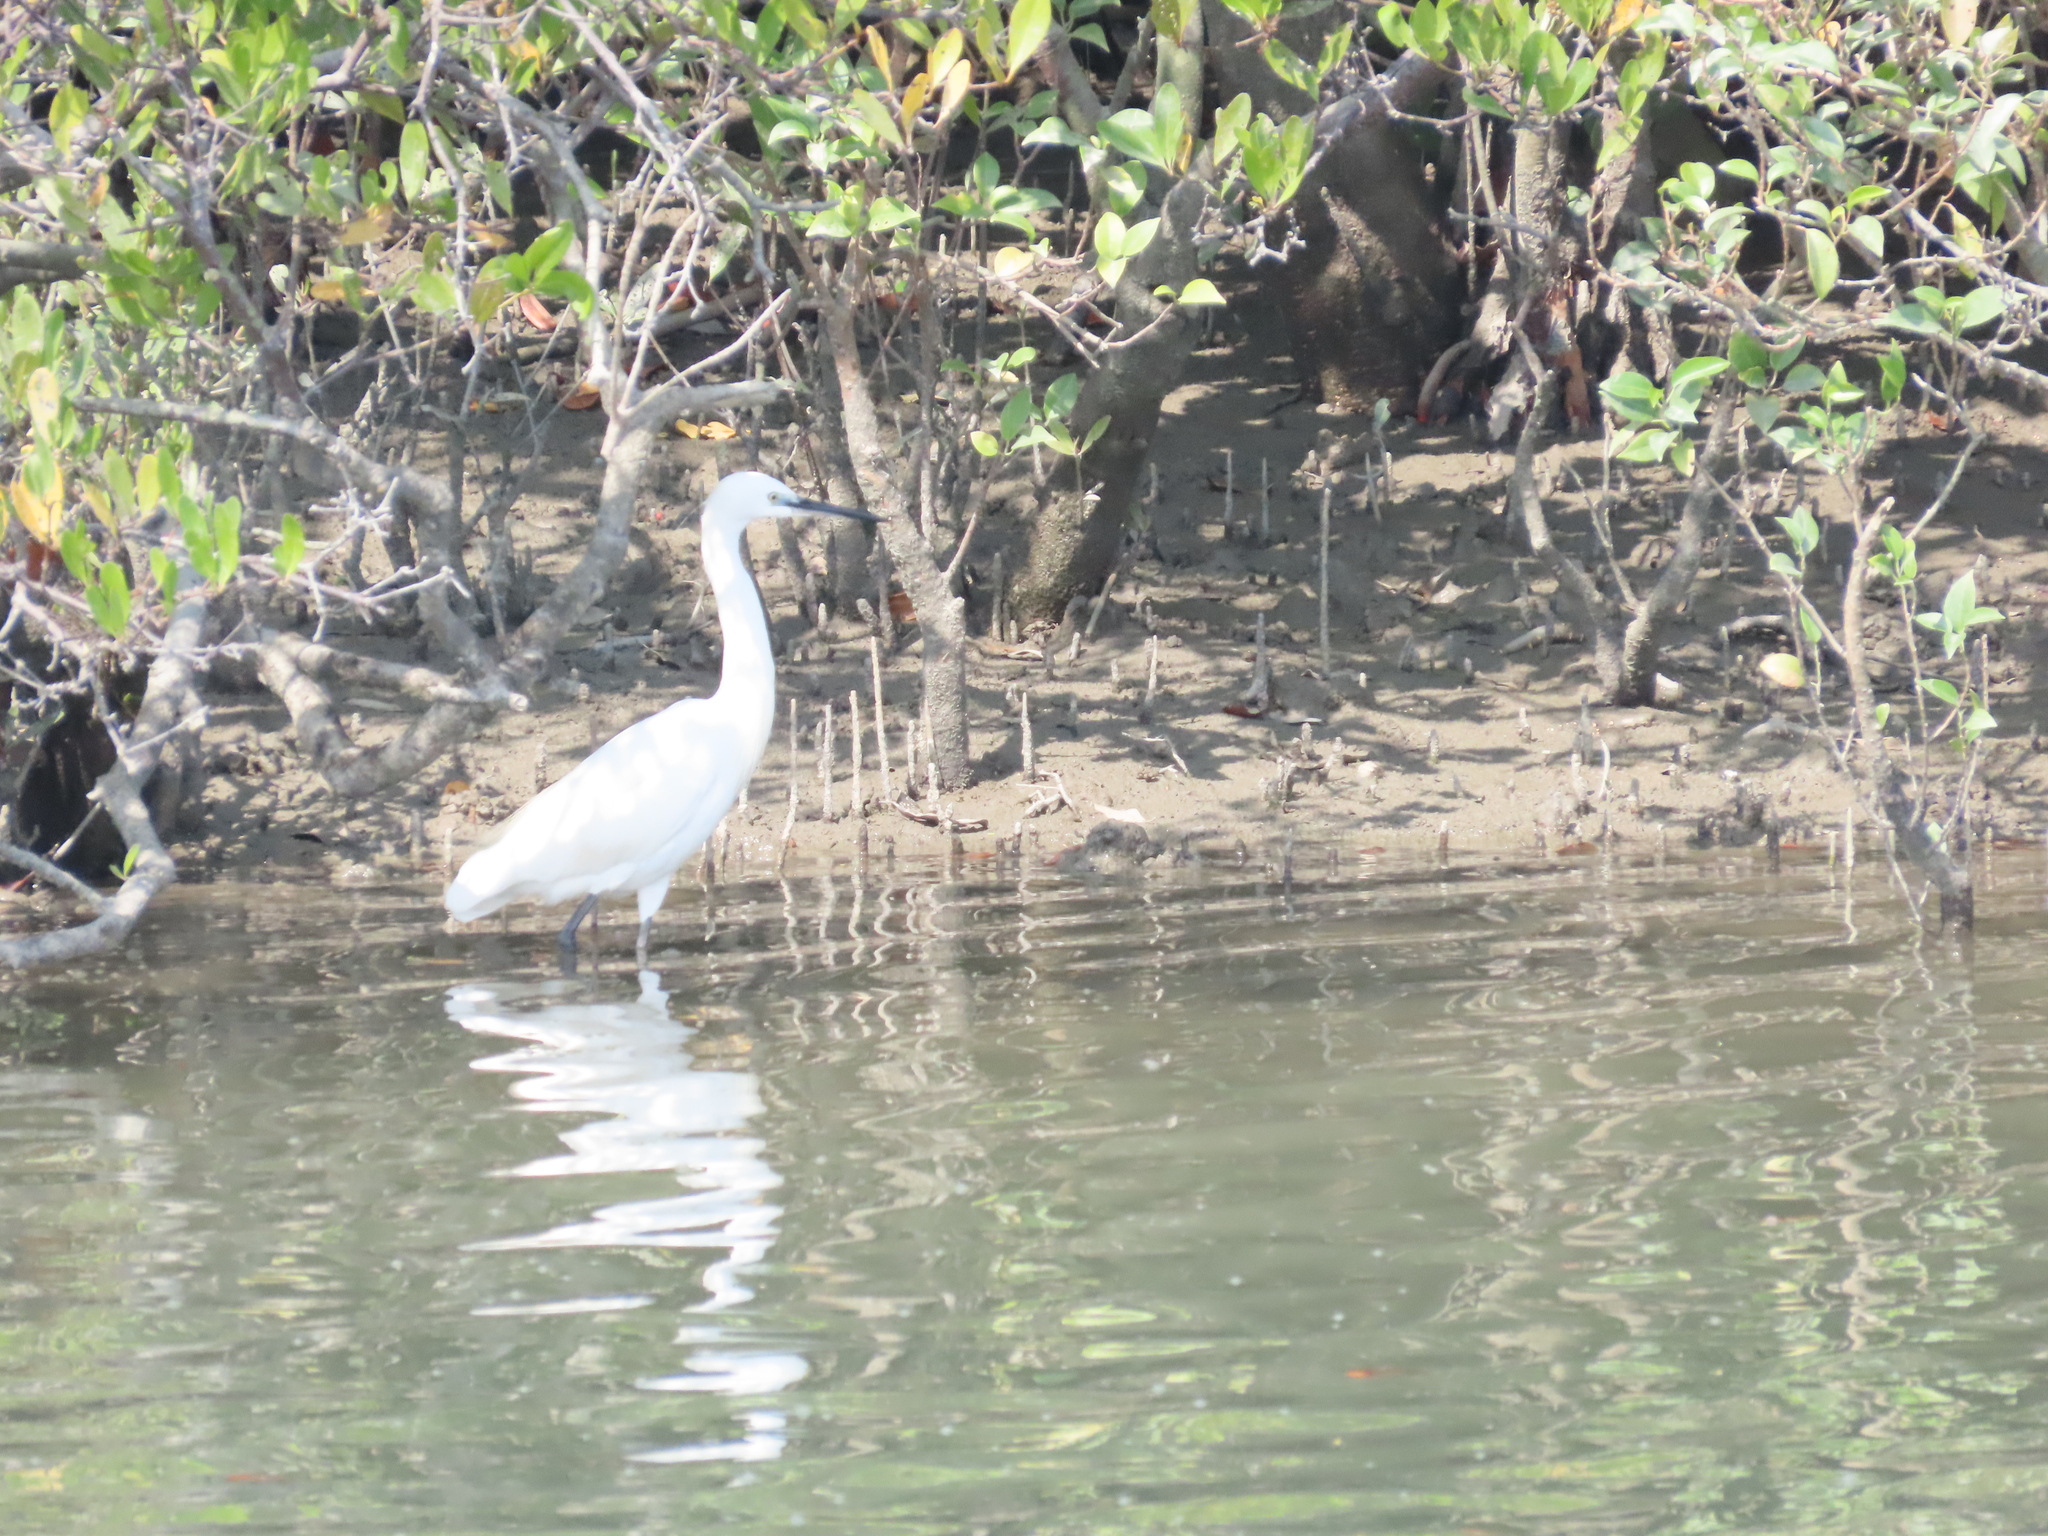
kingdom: Animalia
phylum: Chordata
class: Aves
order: Pelecaniformes
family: Ardeidae
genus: Egretta
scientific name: Egretta garzetta
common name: Little egret
